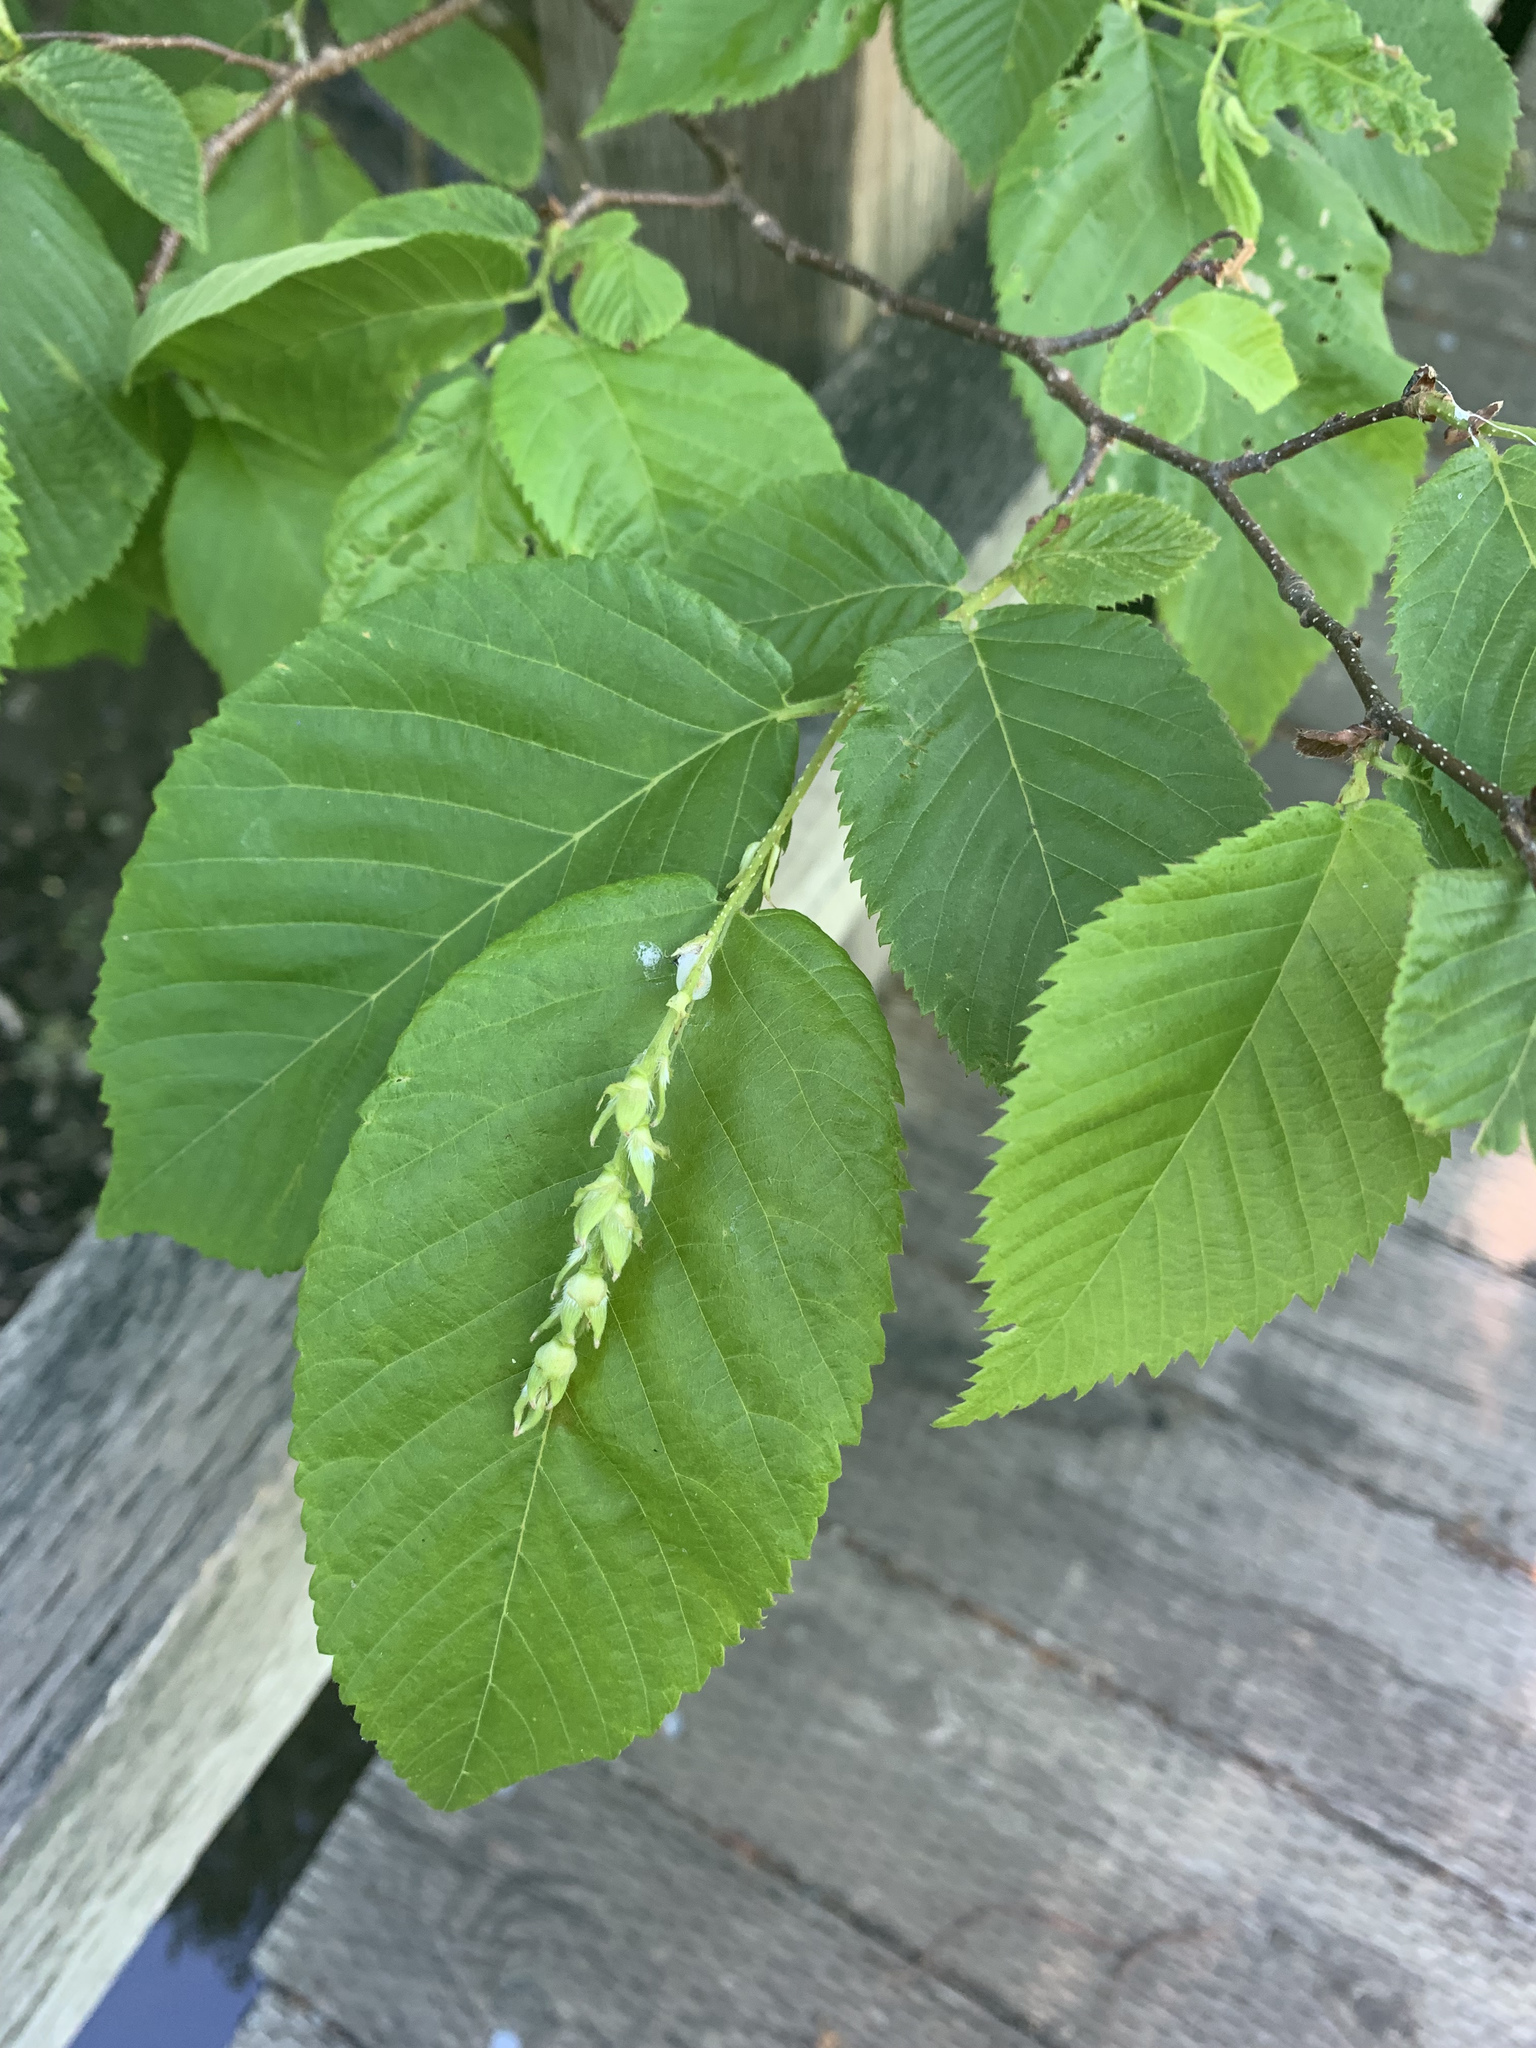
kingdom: Plantae
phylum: Tracheophyta
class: Magnoliopsida
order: Fagales
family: Betulaceae
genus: Ostrya
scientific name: Ostrya virginiana
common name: Ironwood
